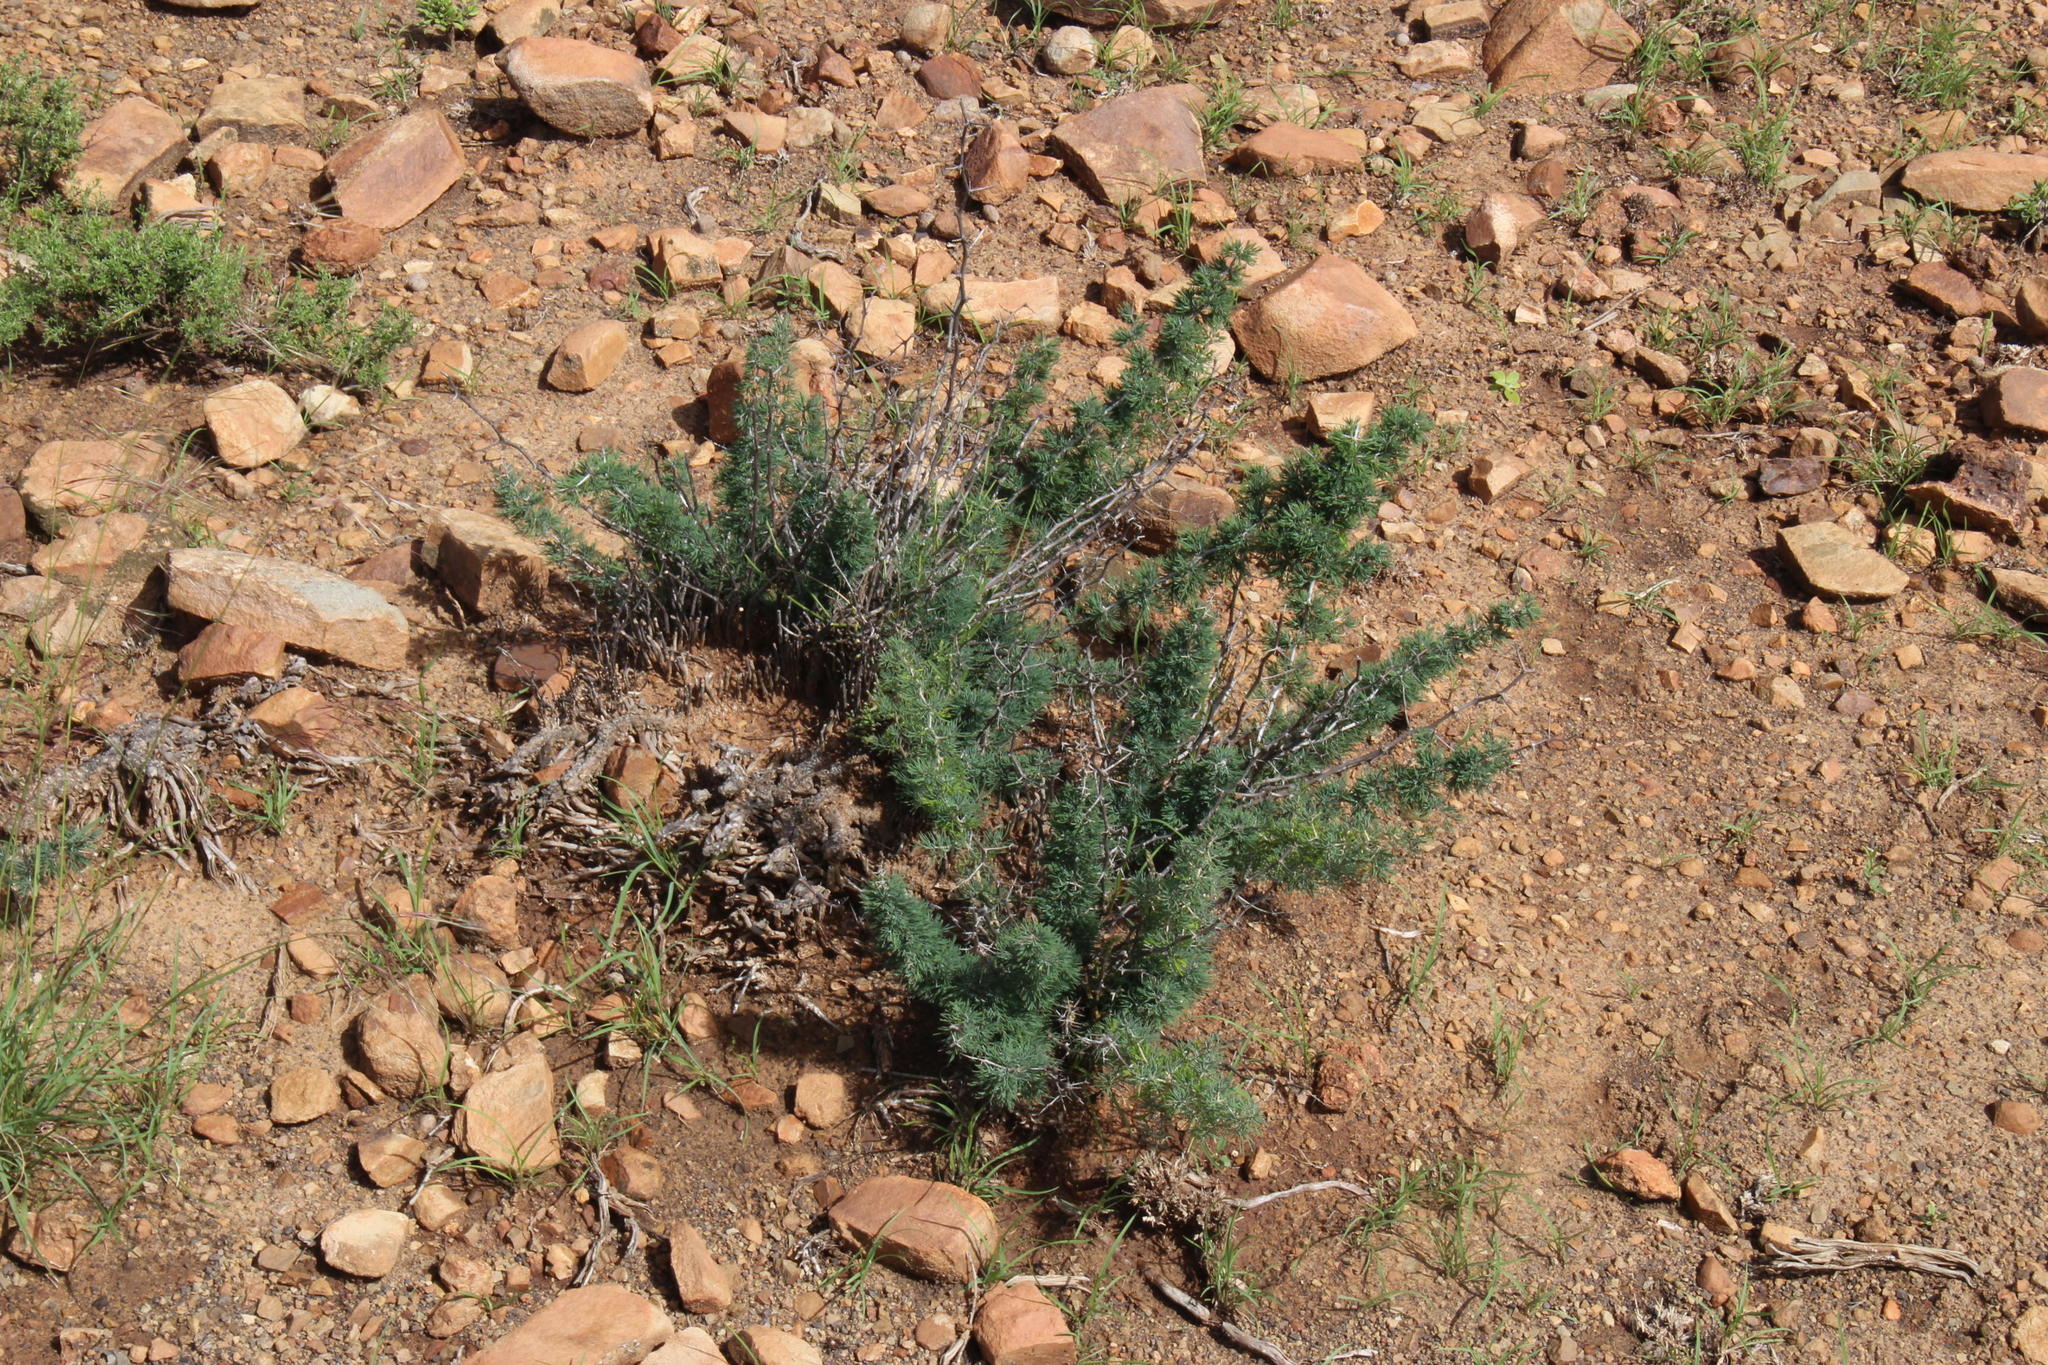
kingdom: Plantae
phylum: Tracheophyta
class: Liliopsida
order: Asparagales
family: Asparagaceae
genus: Asparagus
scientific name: Asparagus suaveolens
